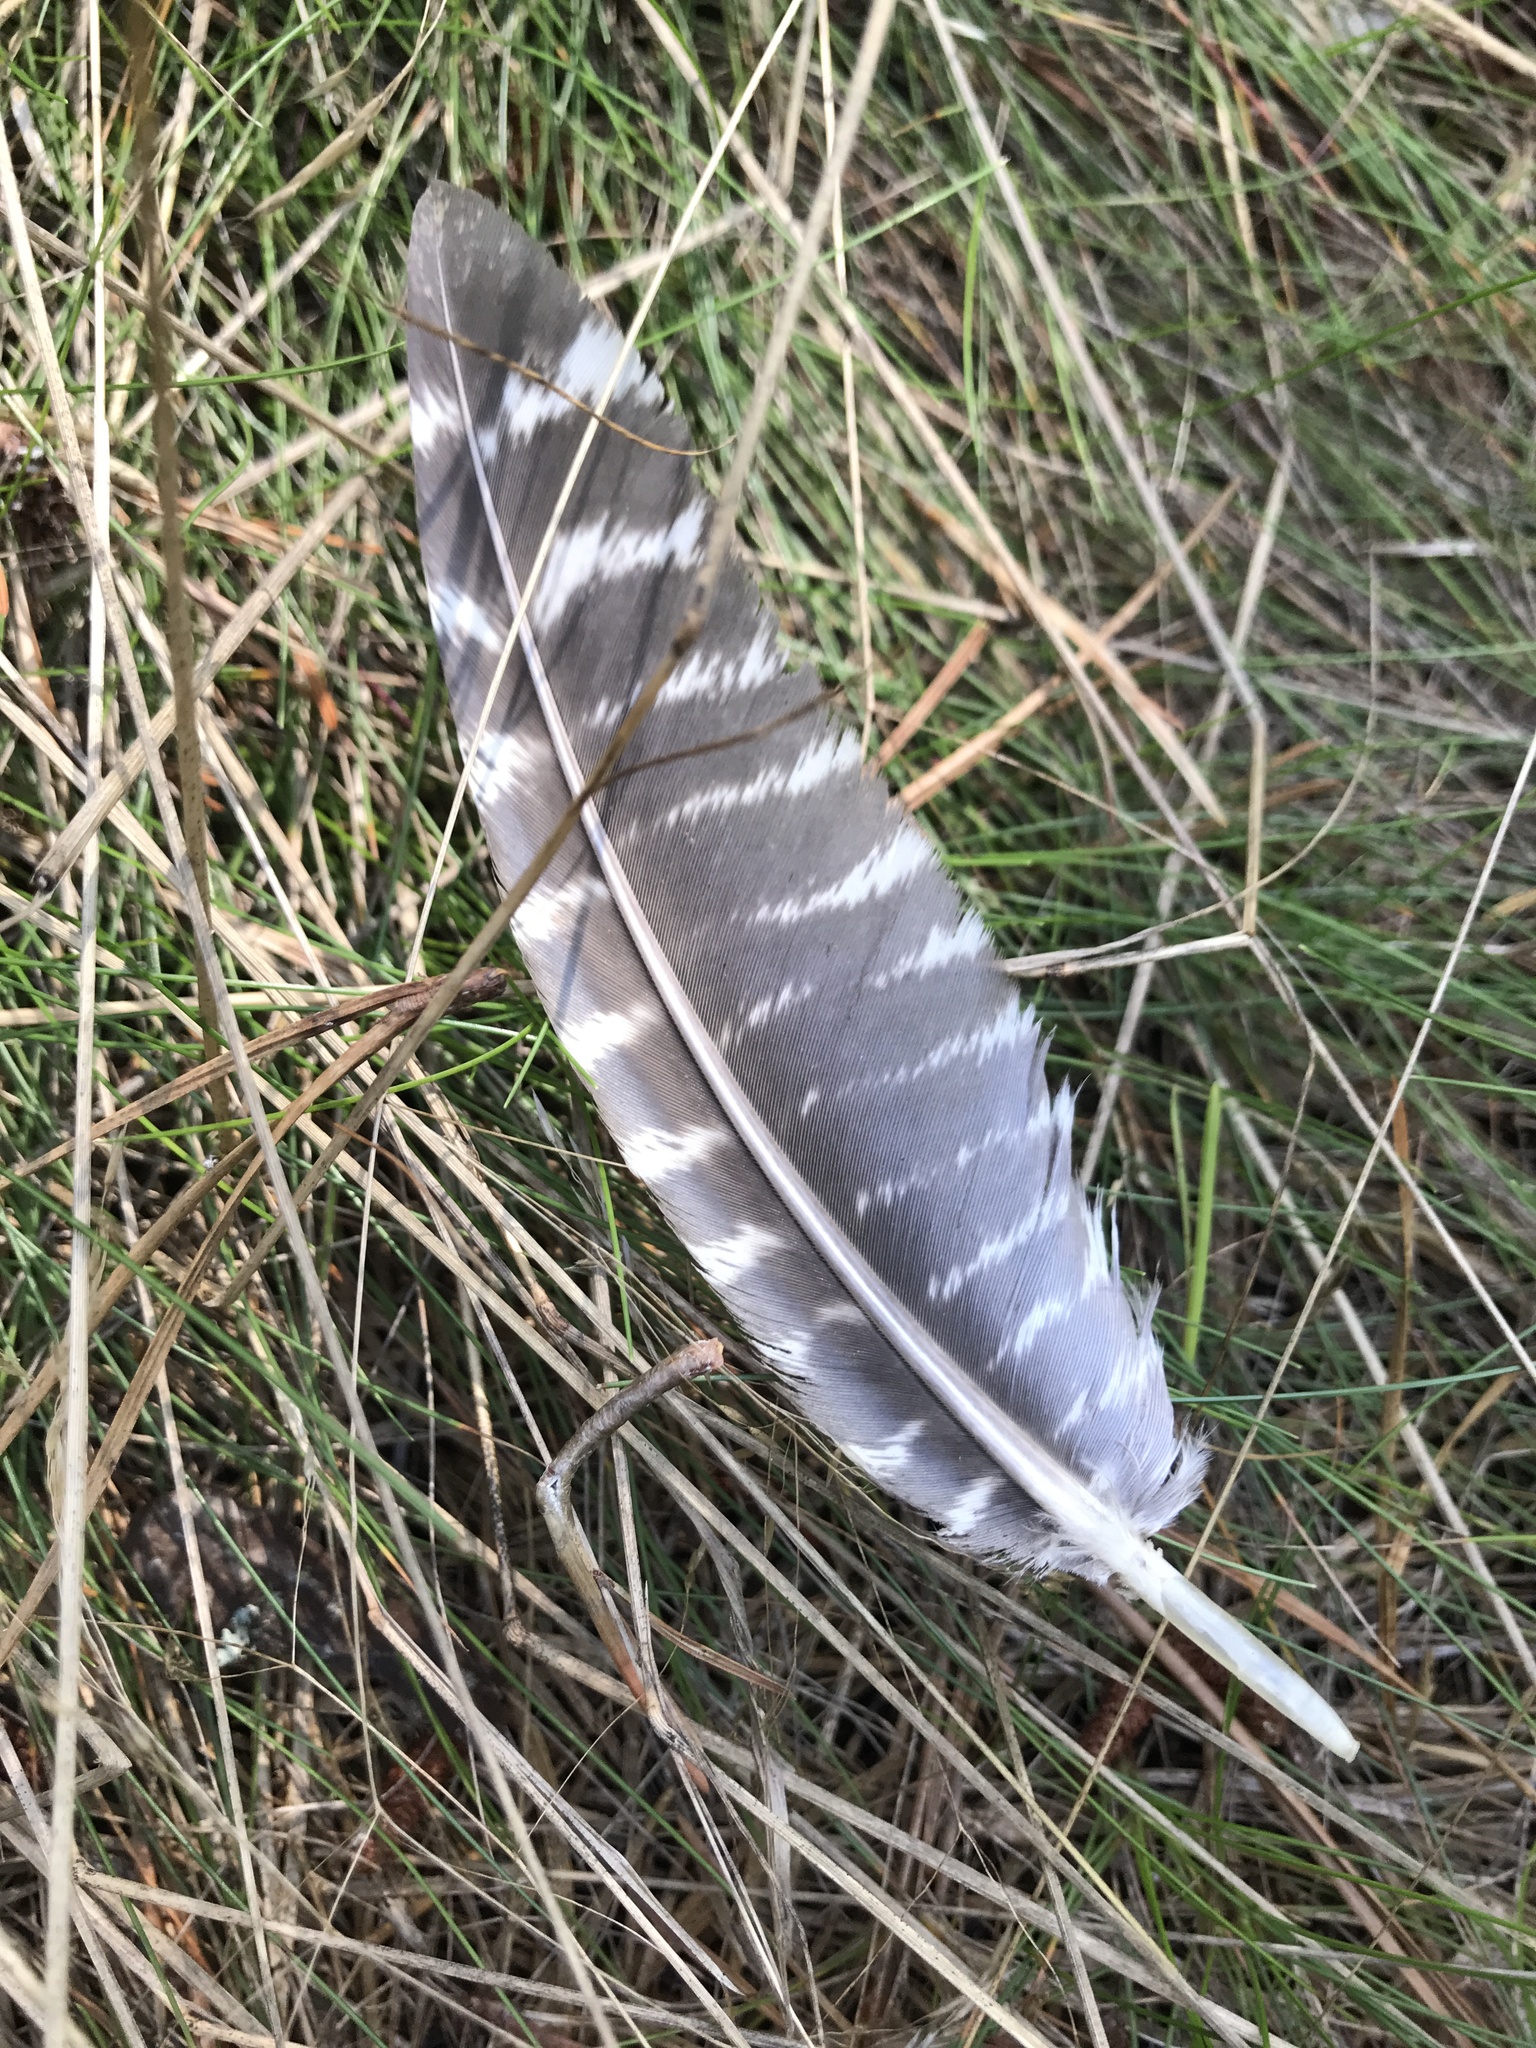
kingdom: Animalia
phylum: Chordata
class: Aves
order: Galliformes
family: Phasianidae
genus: Meleagris
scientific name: Meleagris gallopavo
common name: Wild turkey
